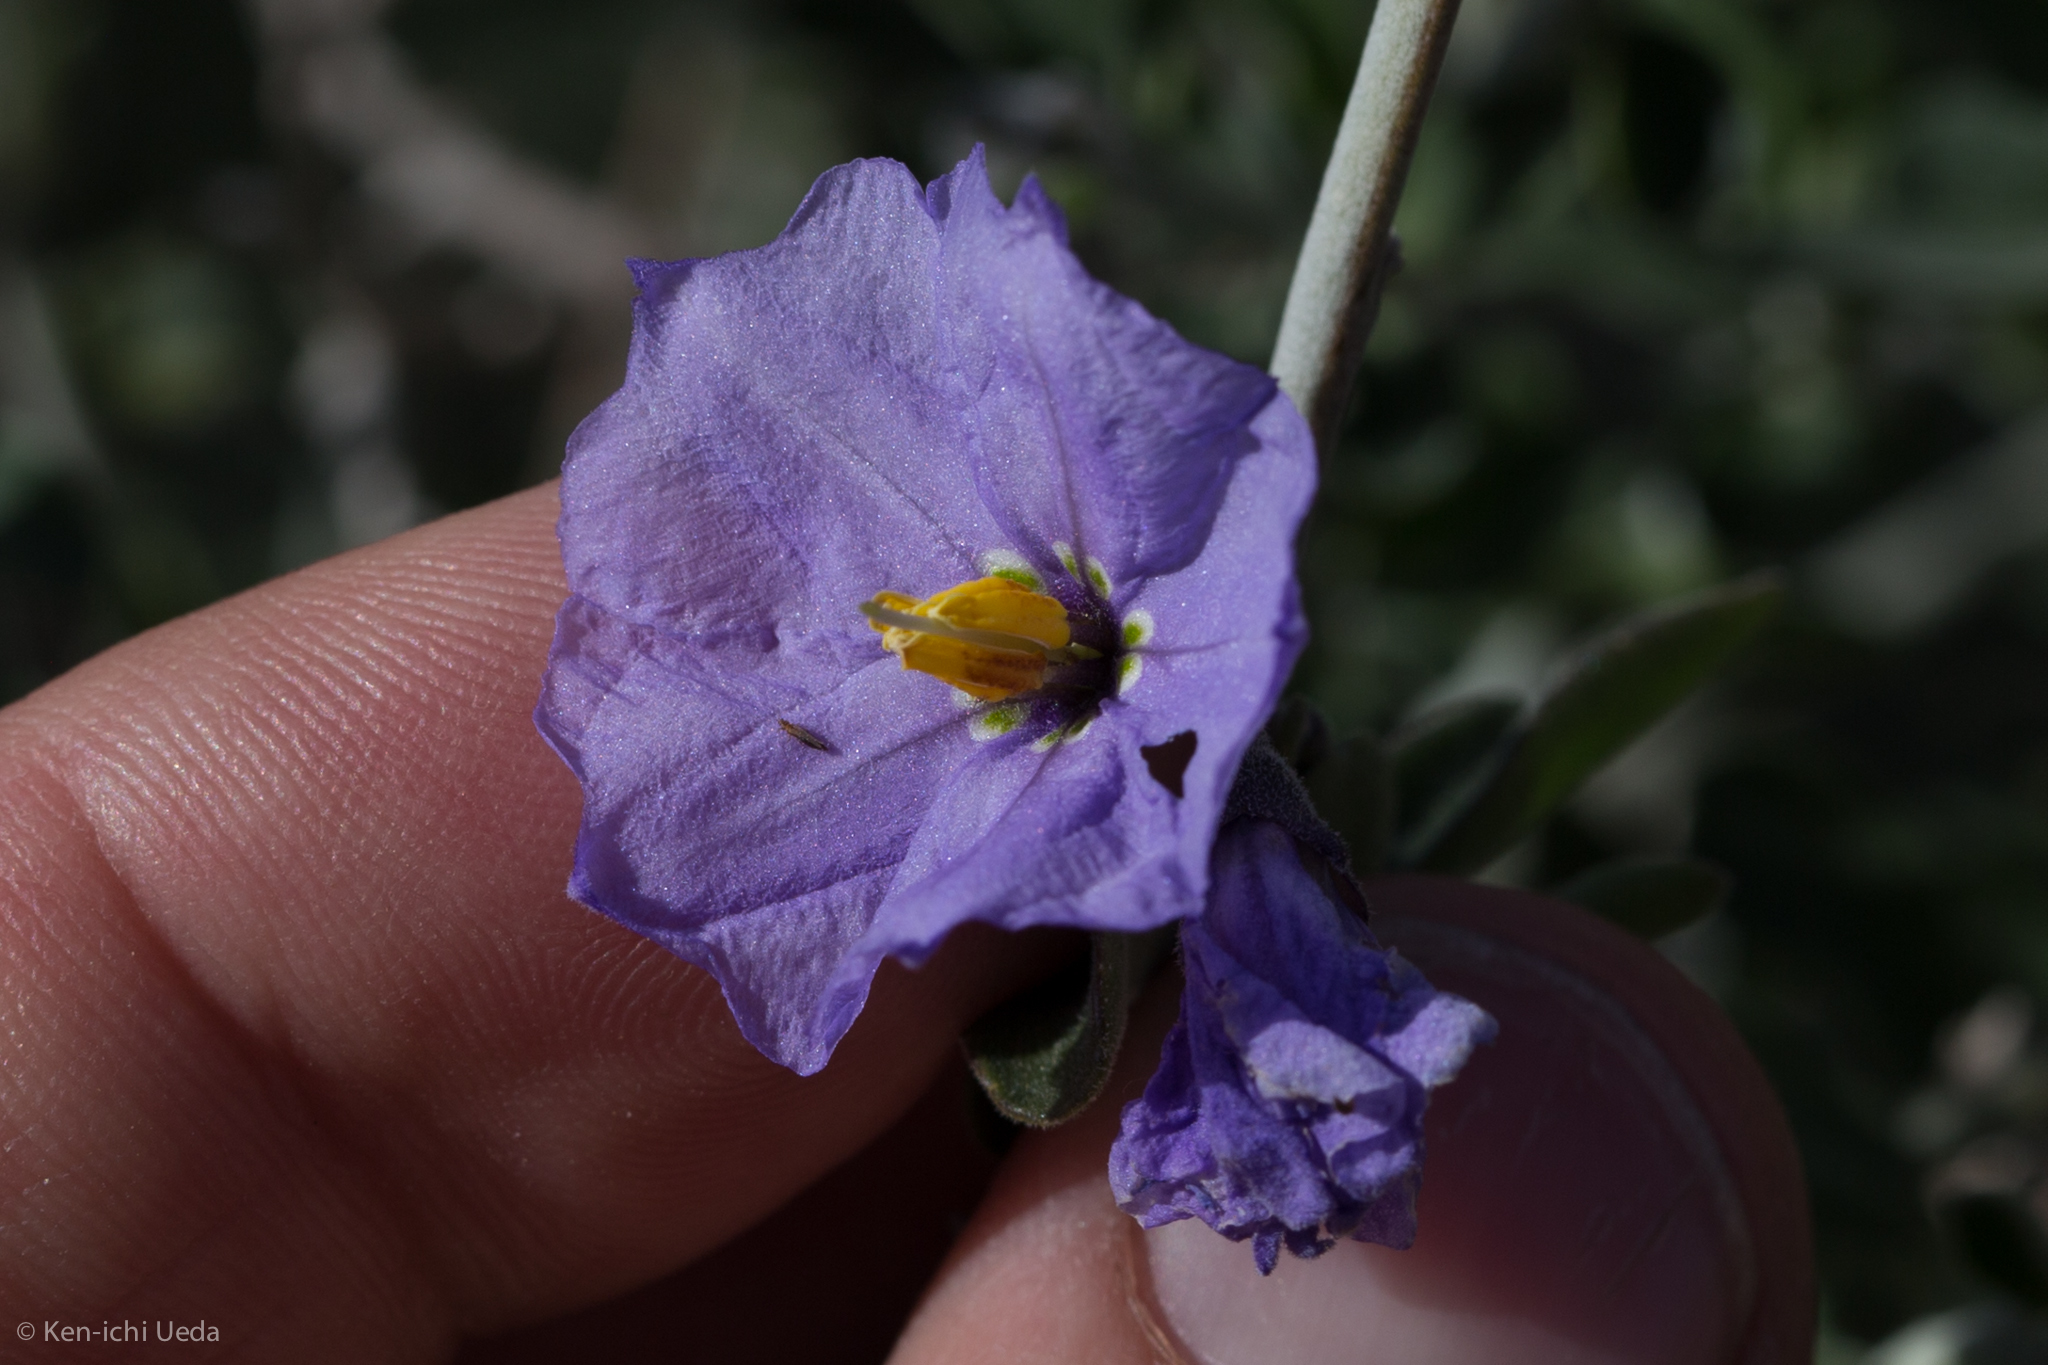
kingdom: Plantae
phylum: Tracheophyta
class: Magnoliopsida
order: Solanales
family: Solanaceae
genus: Solanum
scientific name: Solanum umbelliferum
